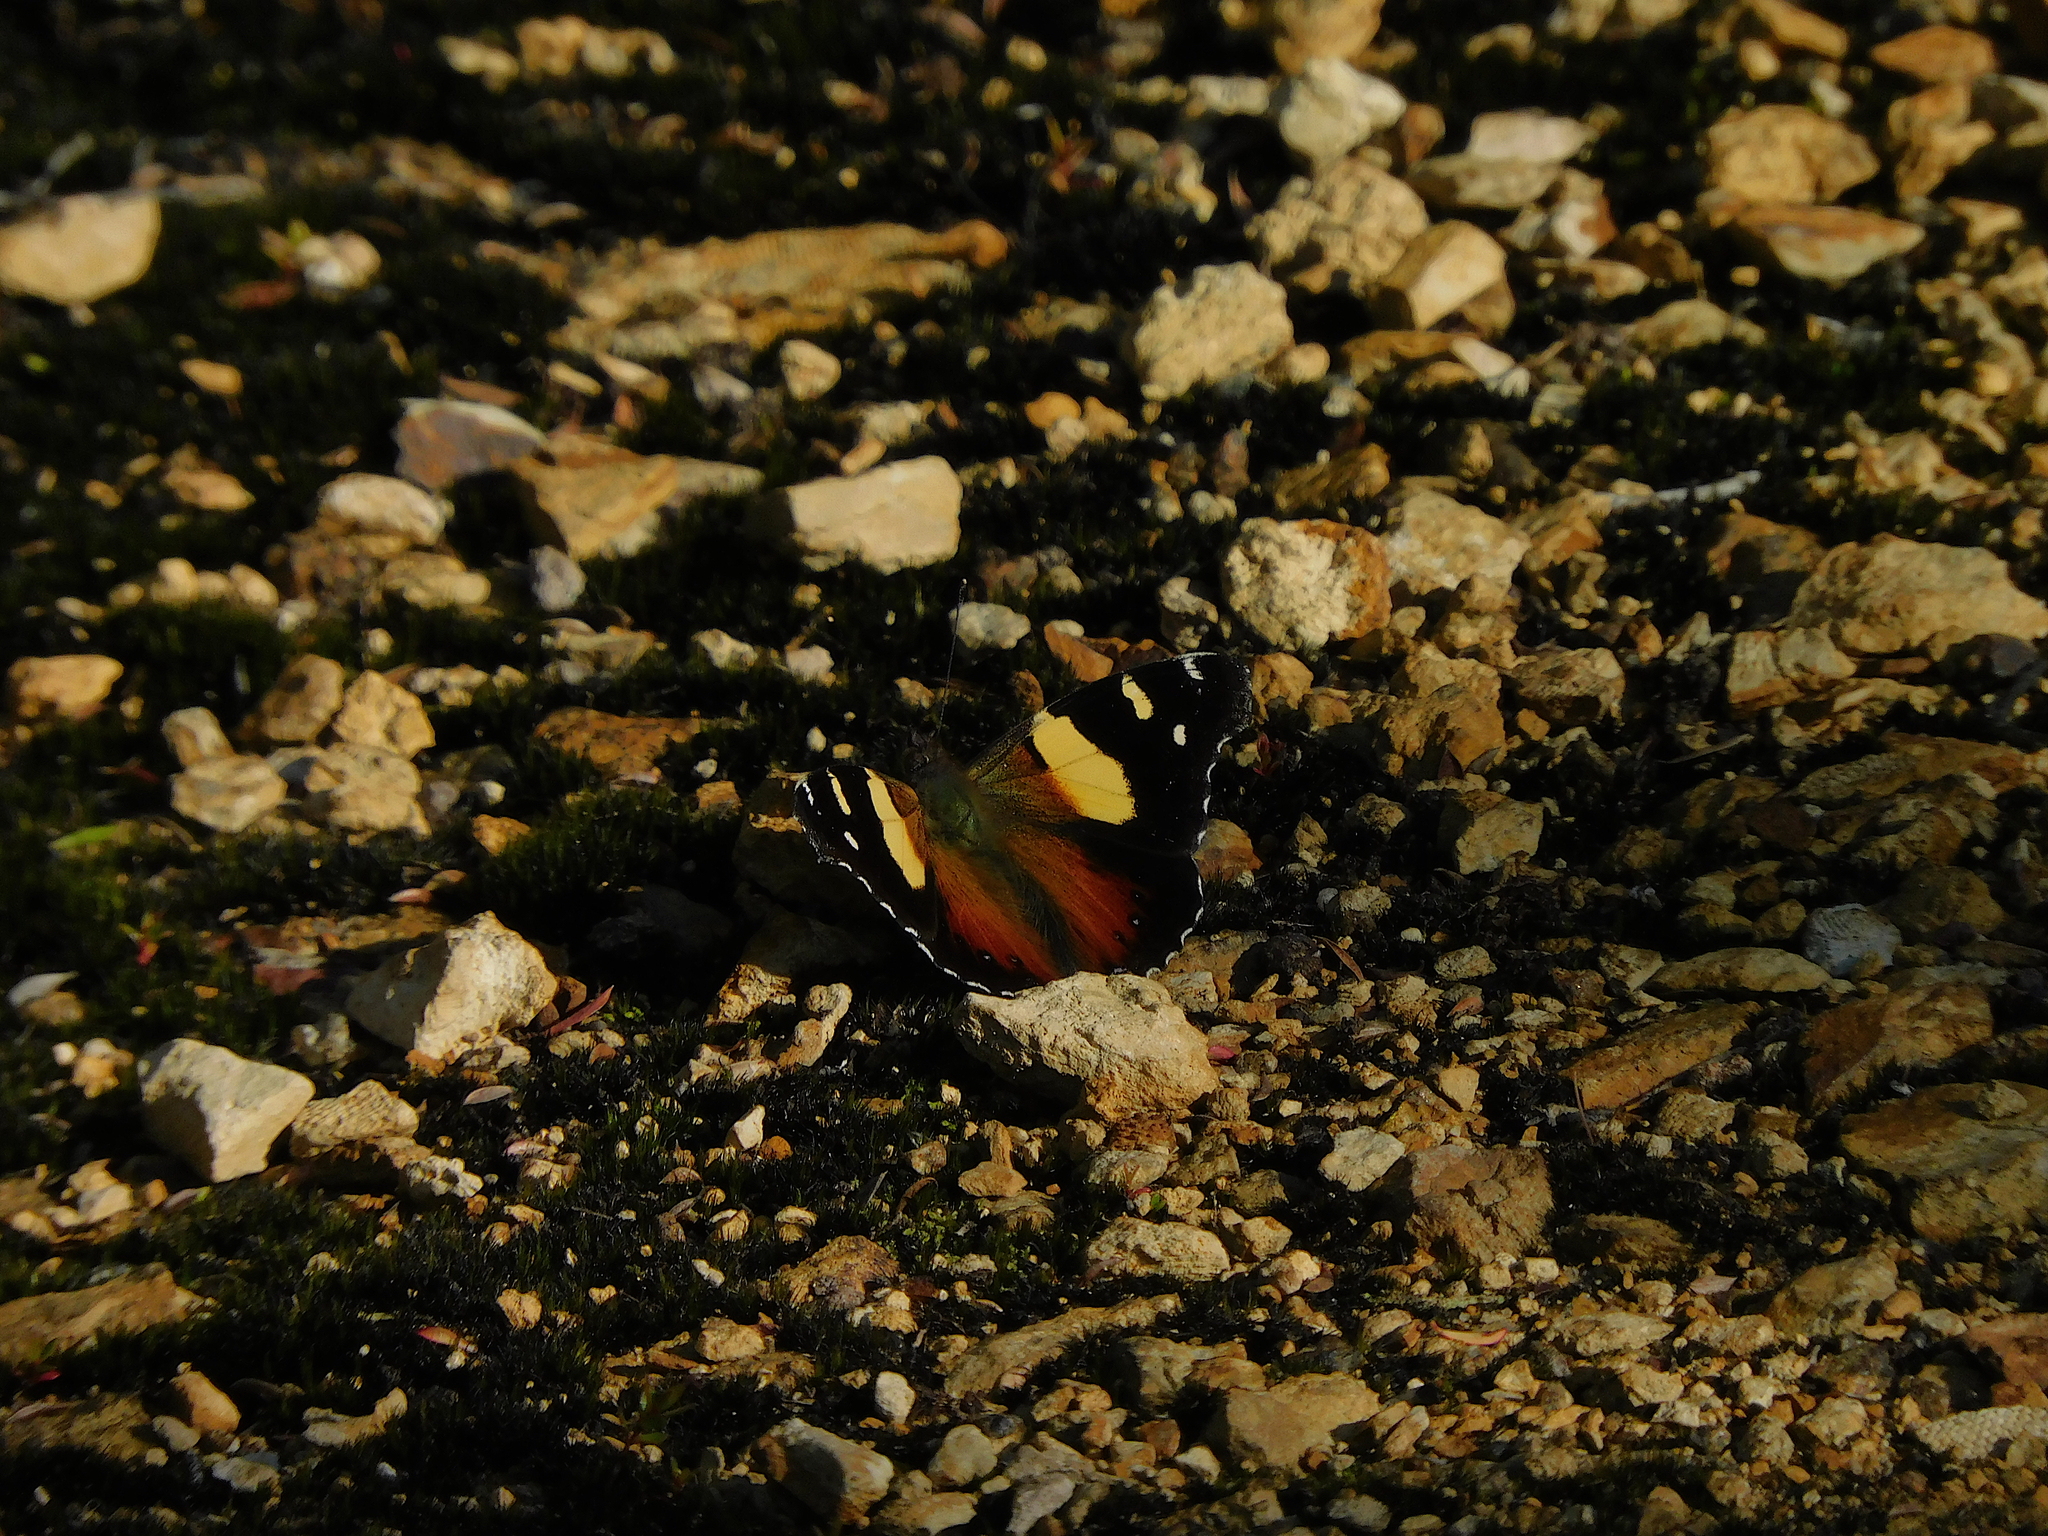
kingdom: Animalia
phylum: Arthropoda
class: Insecta
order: Lepidoptera
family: Nymphalidae
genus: Vanessa
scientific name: Vanessa itea
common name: Yellow admiral
